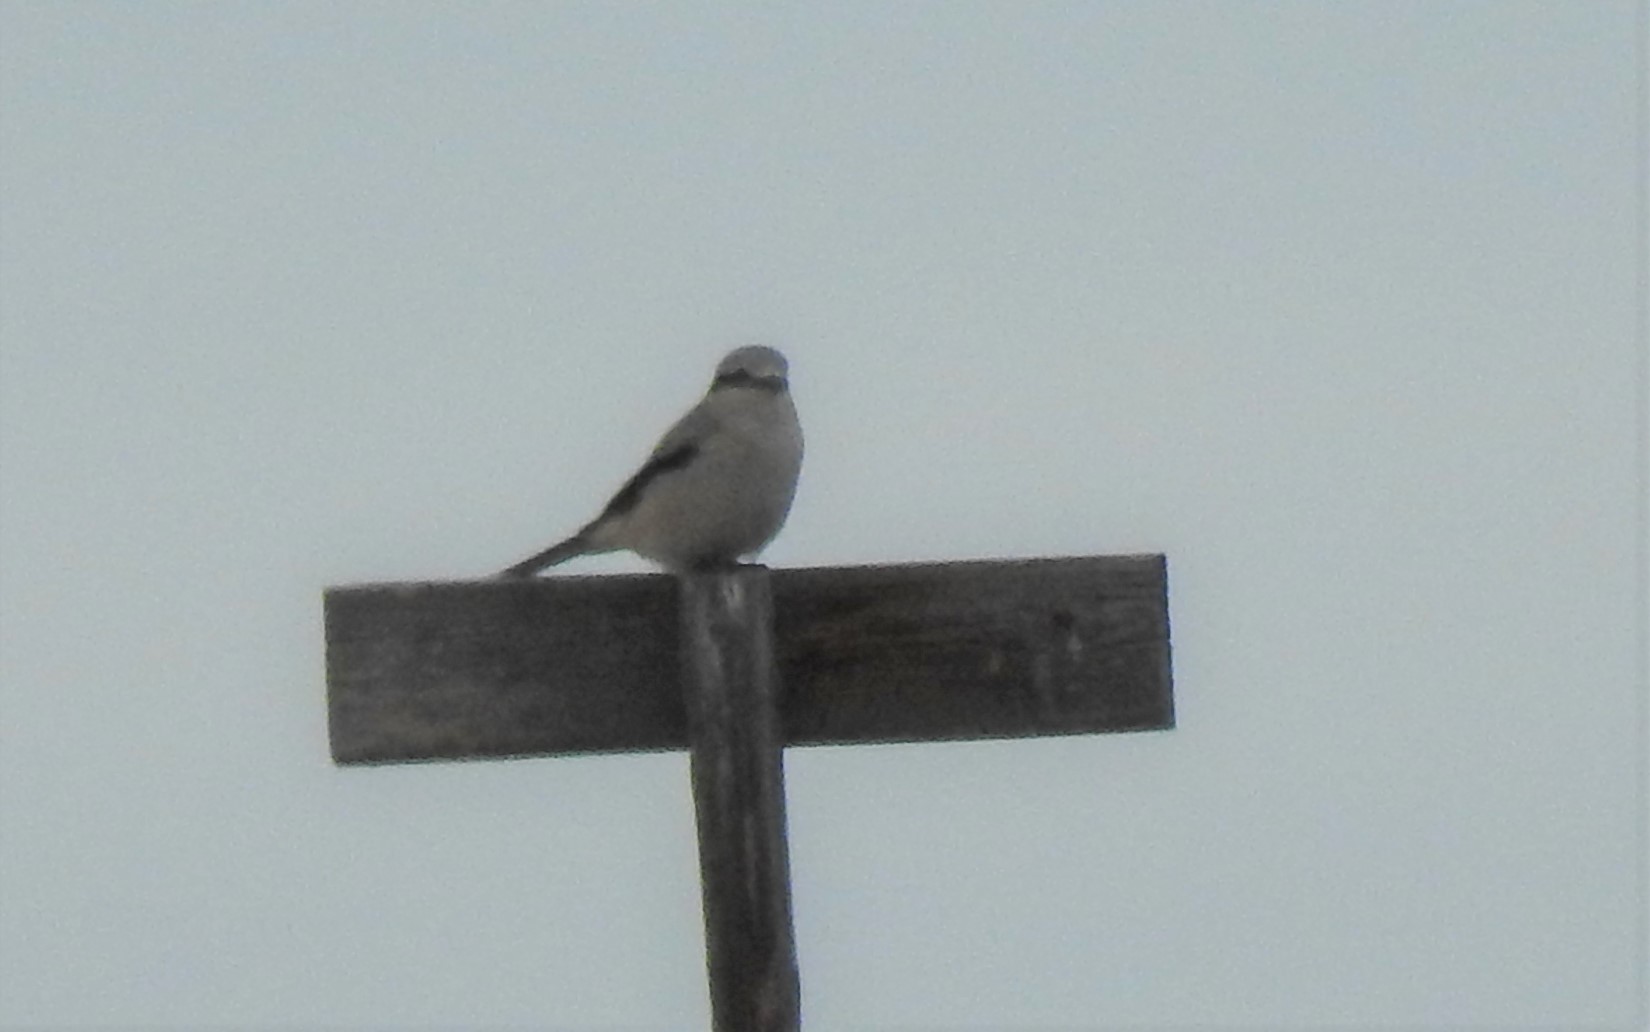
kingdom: Animalia
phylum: Chordata
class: Aves
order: Passeriformes
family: Laniidae
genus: Lanius
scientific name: Lanius borealis
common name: Northern shrike
